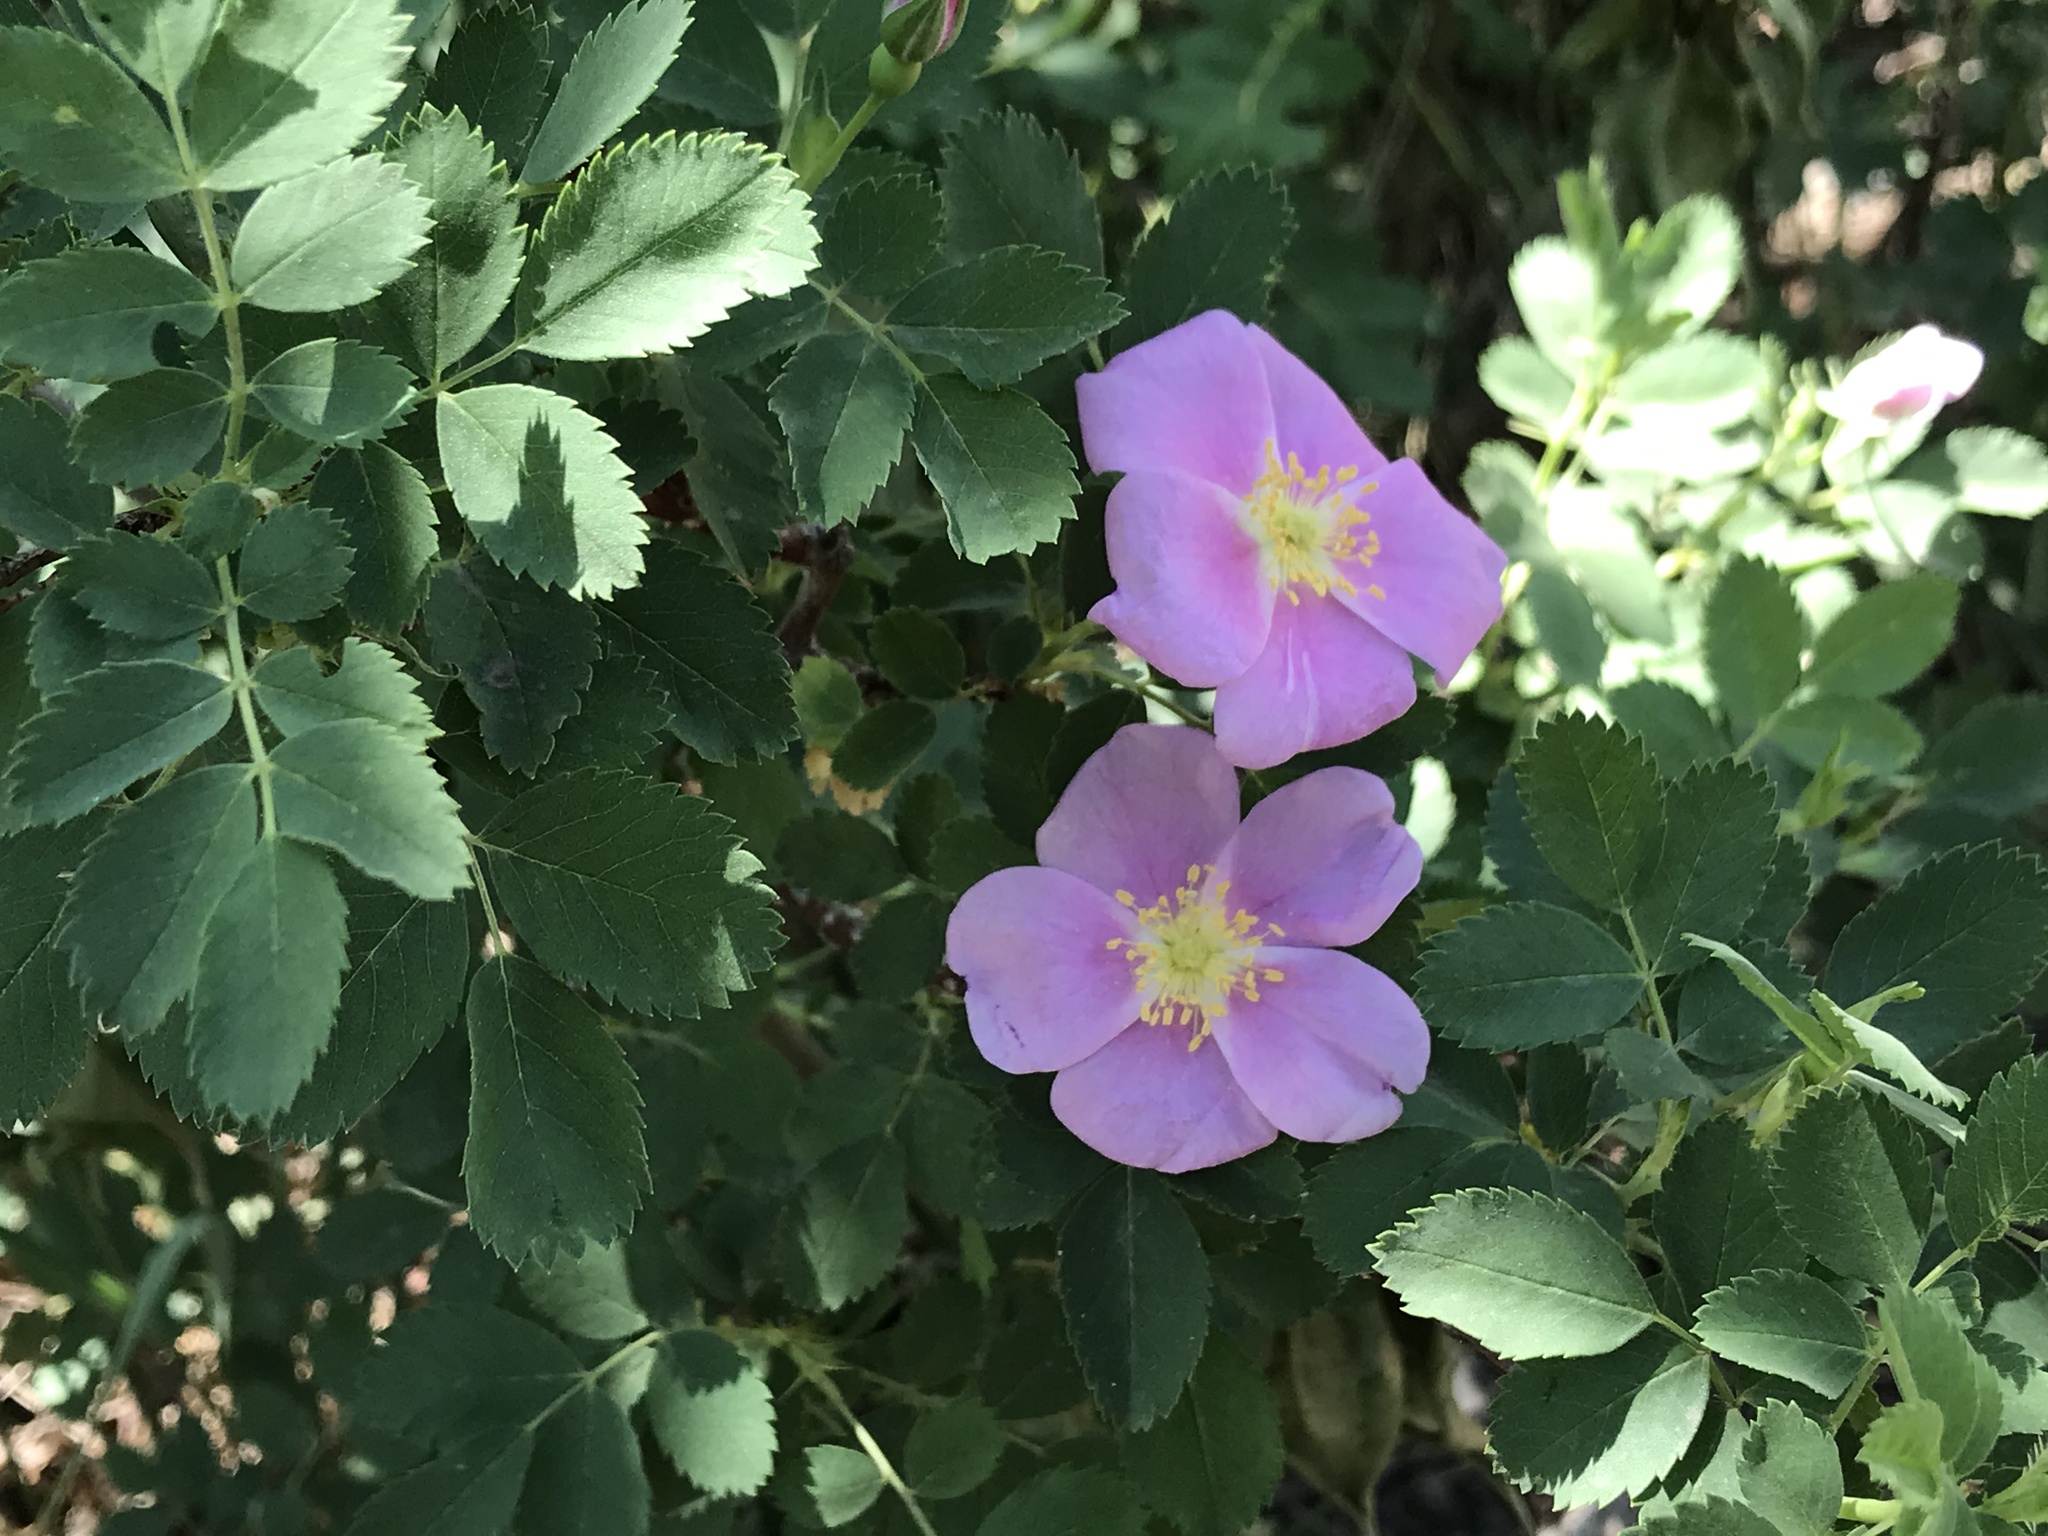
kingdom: Plantae
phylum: Tracheophyta
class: Magnoliopsida
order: Rosales
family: Rosaceae
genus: Rosa
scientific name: Rosa woodsii
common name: Woods's rose
